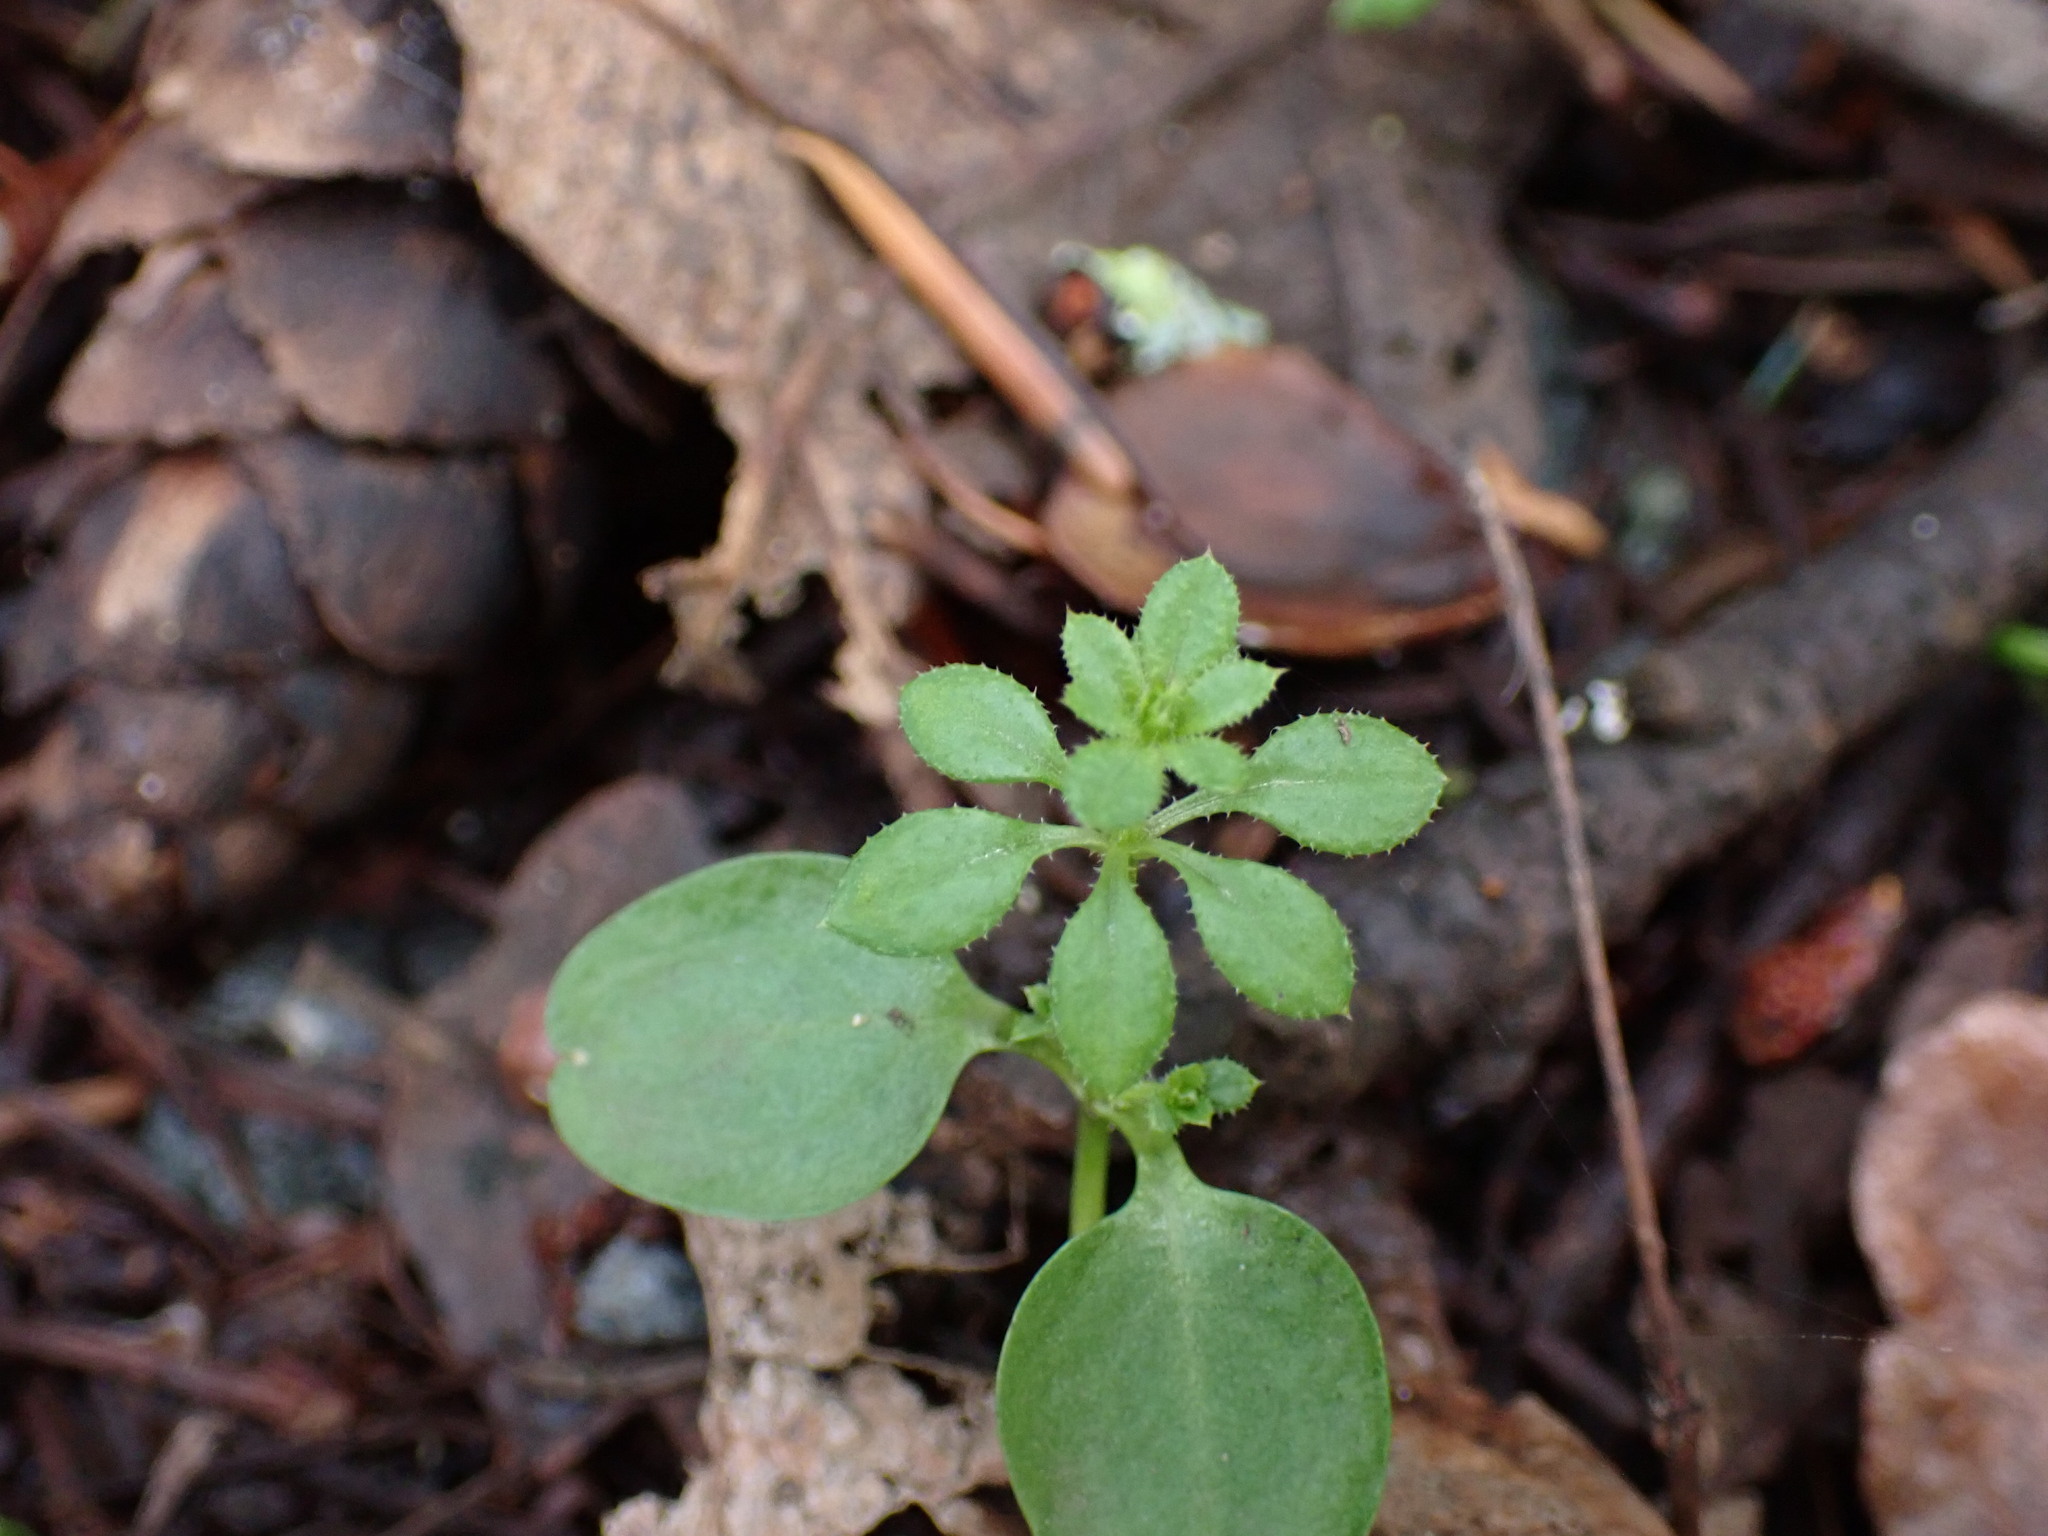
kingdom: Plantae
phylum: Tracheophyta
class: Magnoliopsida
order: Gentianales
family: Rubiaceae
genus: Galium
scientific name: Galium aparine
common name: Cleavers
